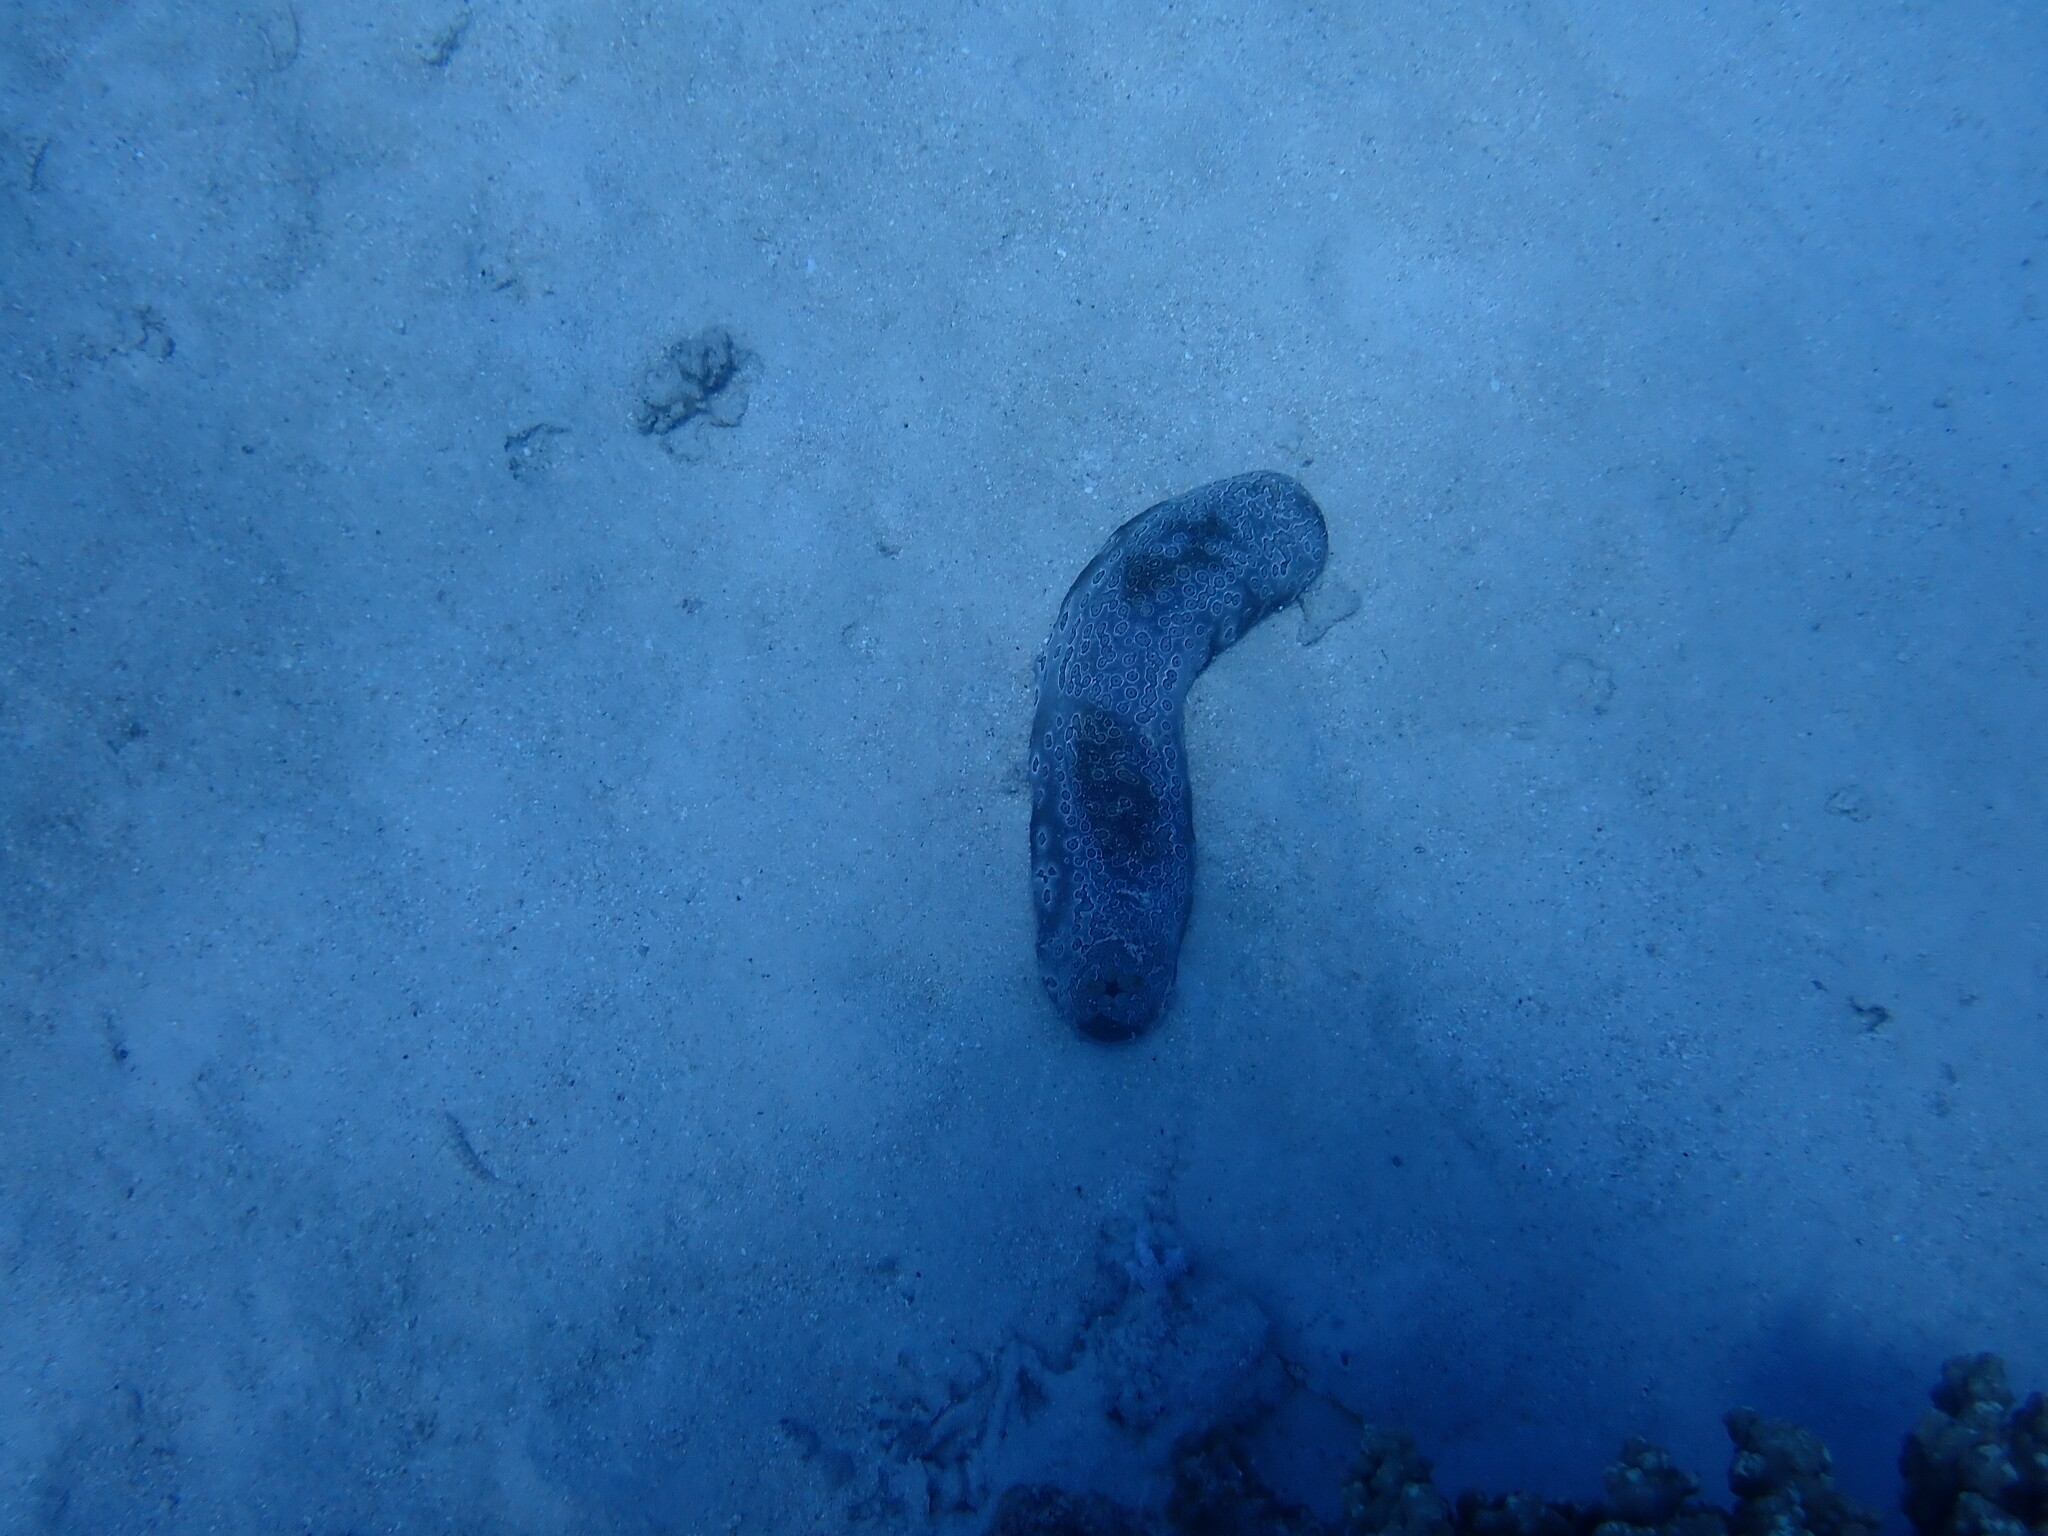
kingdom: Animalia
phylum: Echinodermata
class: Holothuroidea
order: Holothuriida
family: Holothuriidae
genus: Bohadschia
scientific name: Bohadschia argus
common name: Leopardfish
